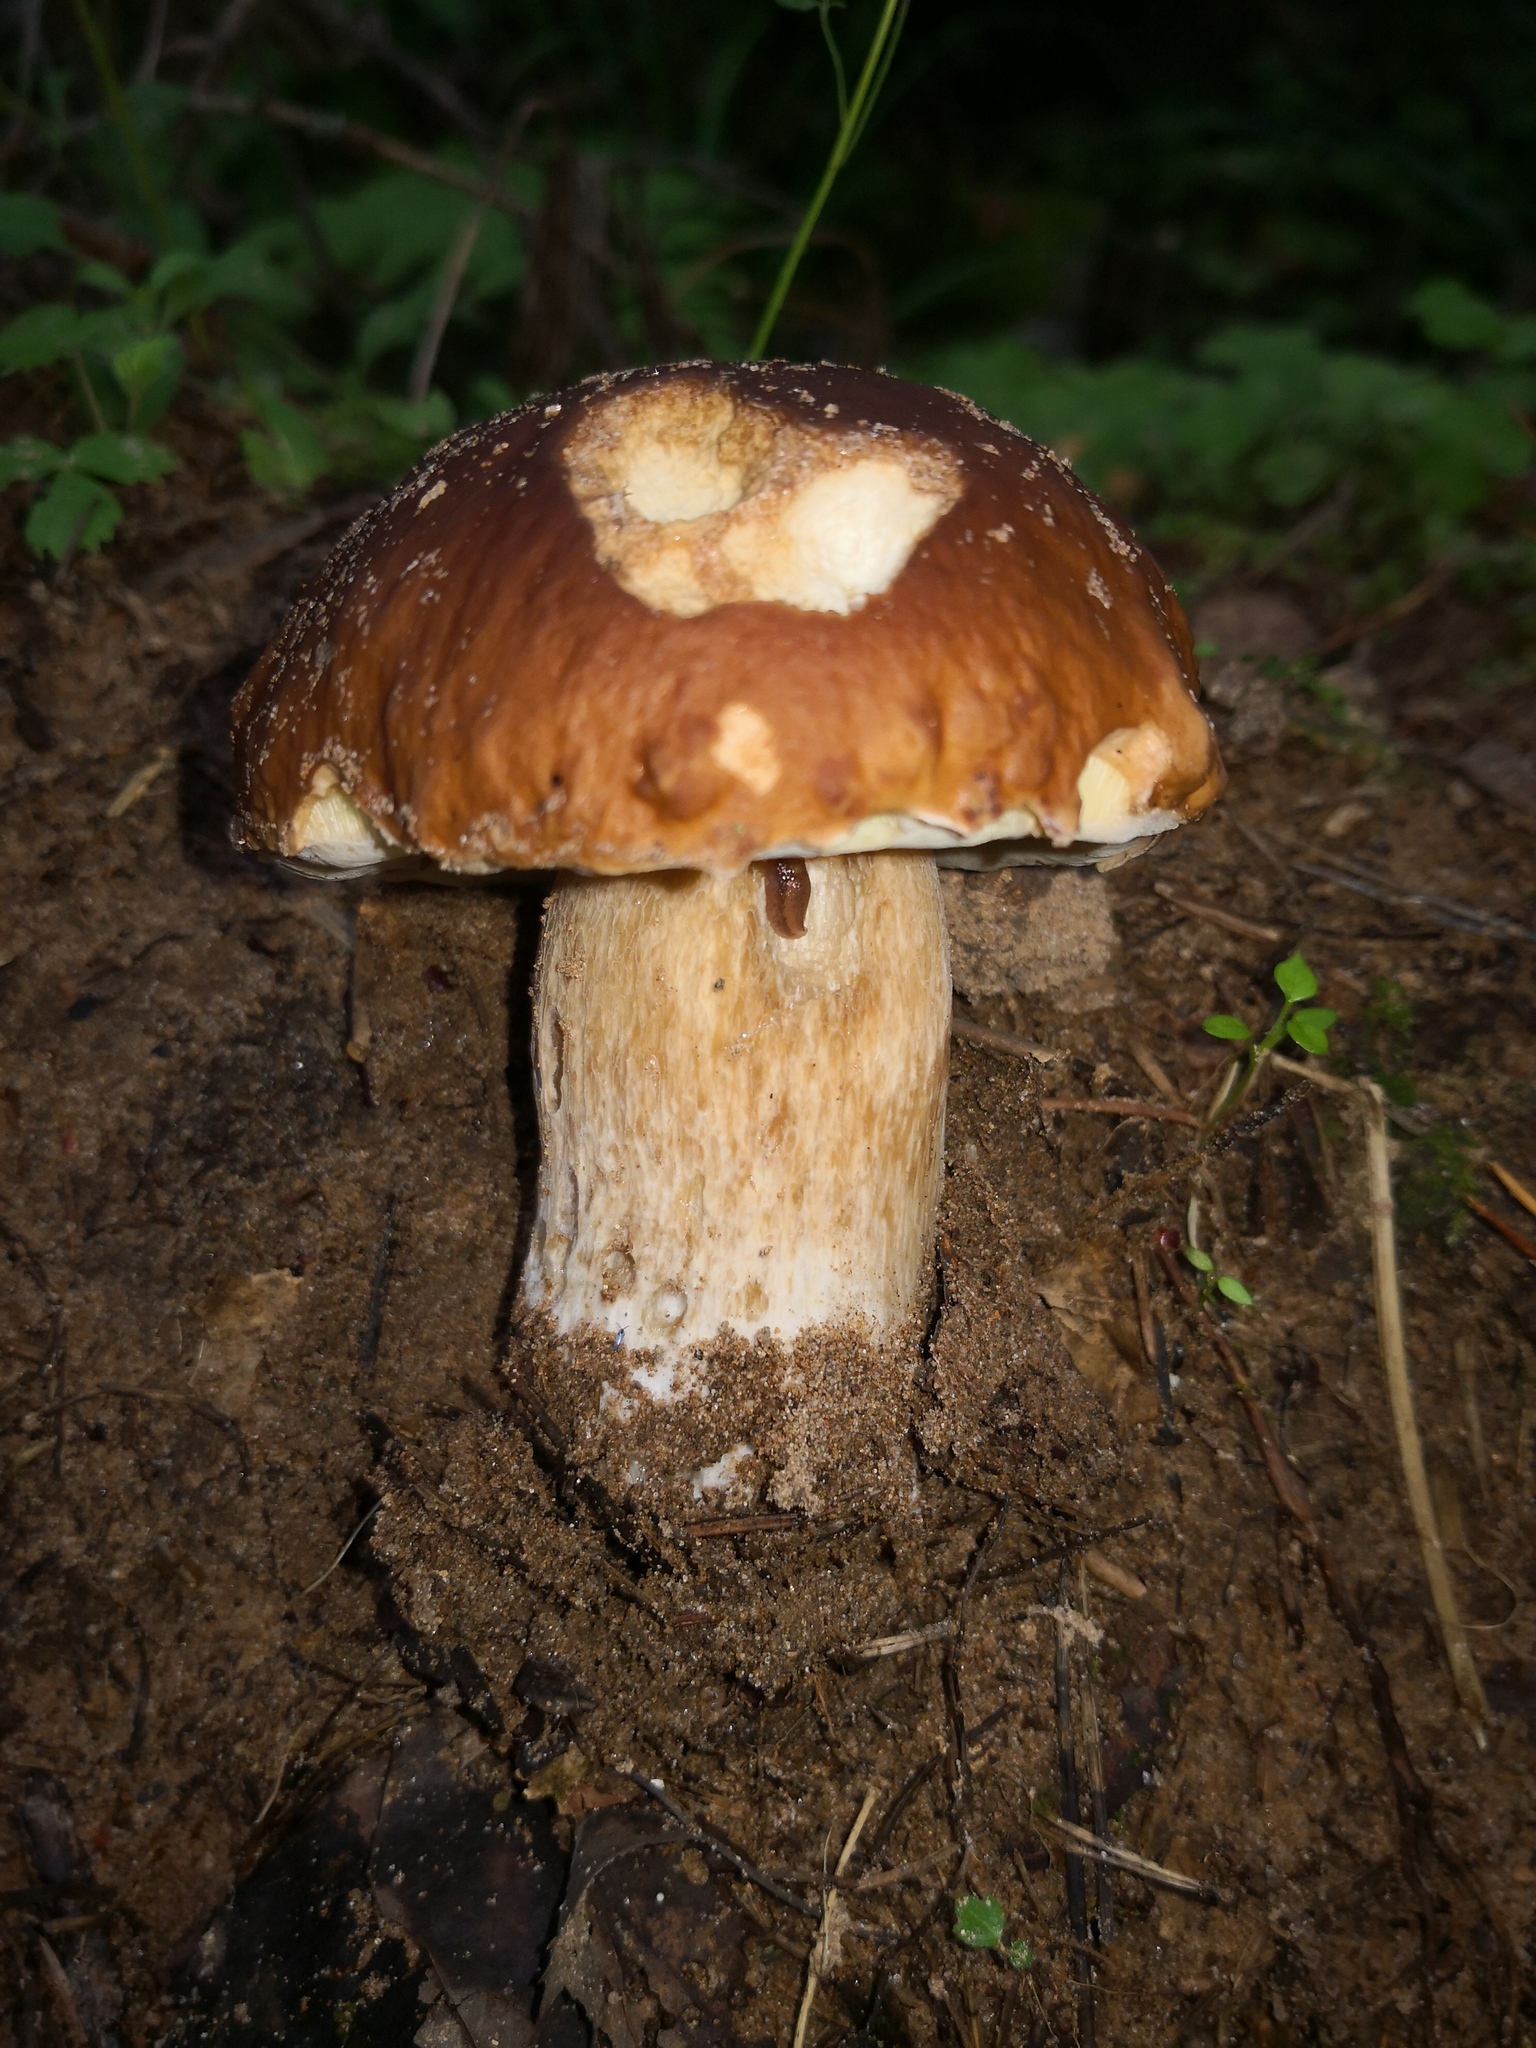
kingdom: Fungi
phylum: Basidiomycota
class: Agaricomycetes
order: Boletales
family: Boletaceae
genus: Boletus
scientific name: Boletus edulis
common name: Cep
